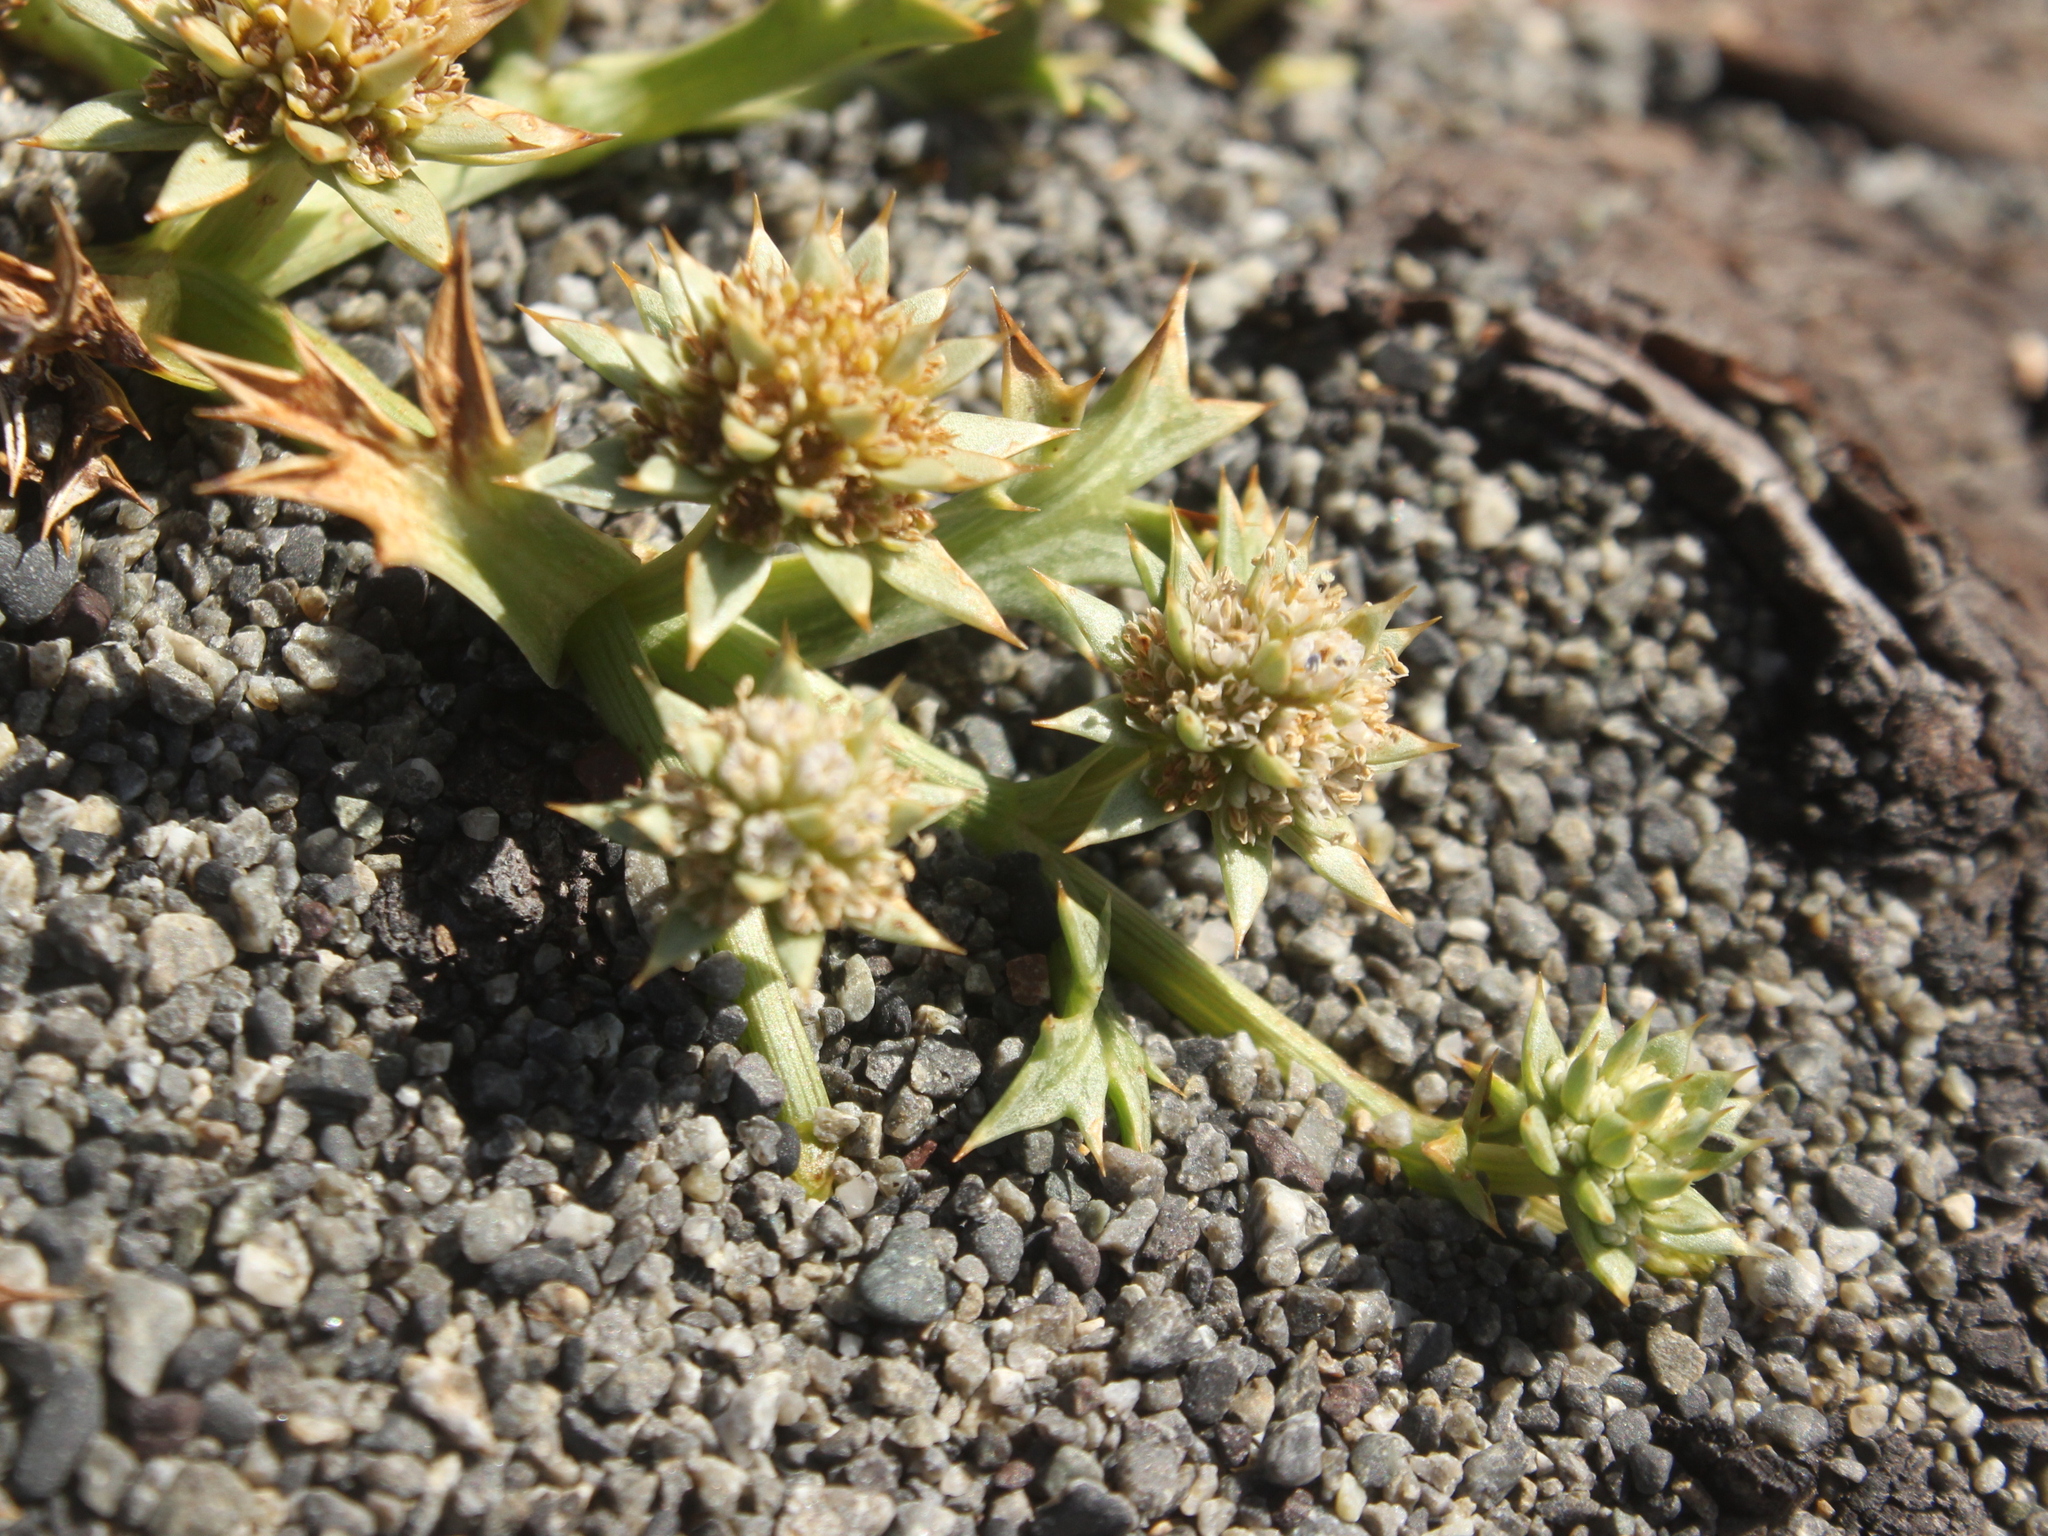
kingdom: Plantae
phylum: Tracheophyta
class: Magnoliopsida
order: Apiales
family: Apiaceae
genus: Eryngium
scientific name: Eryngium vesiculosum
